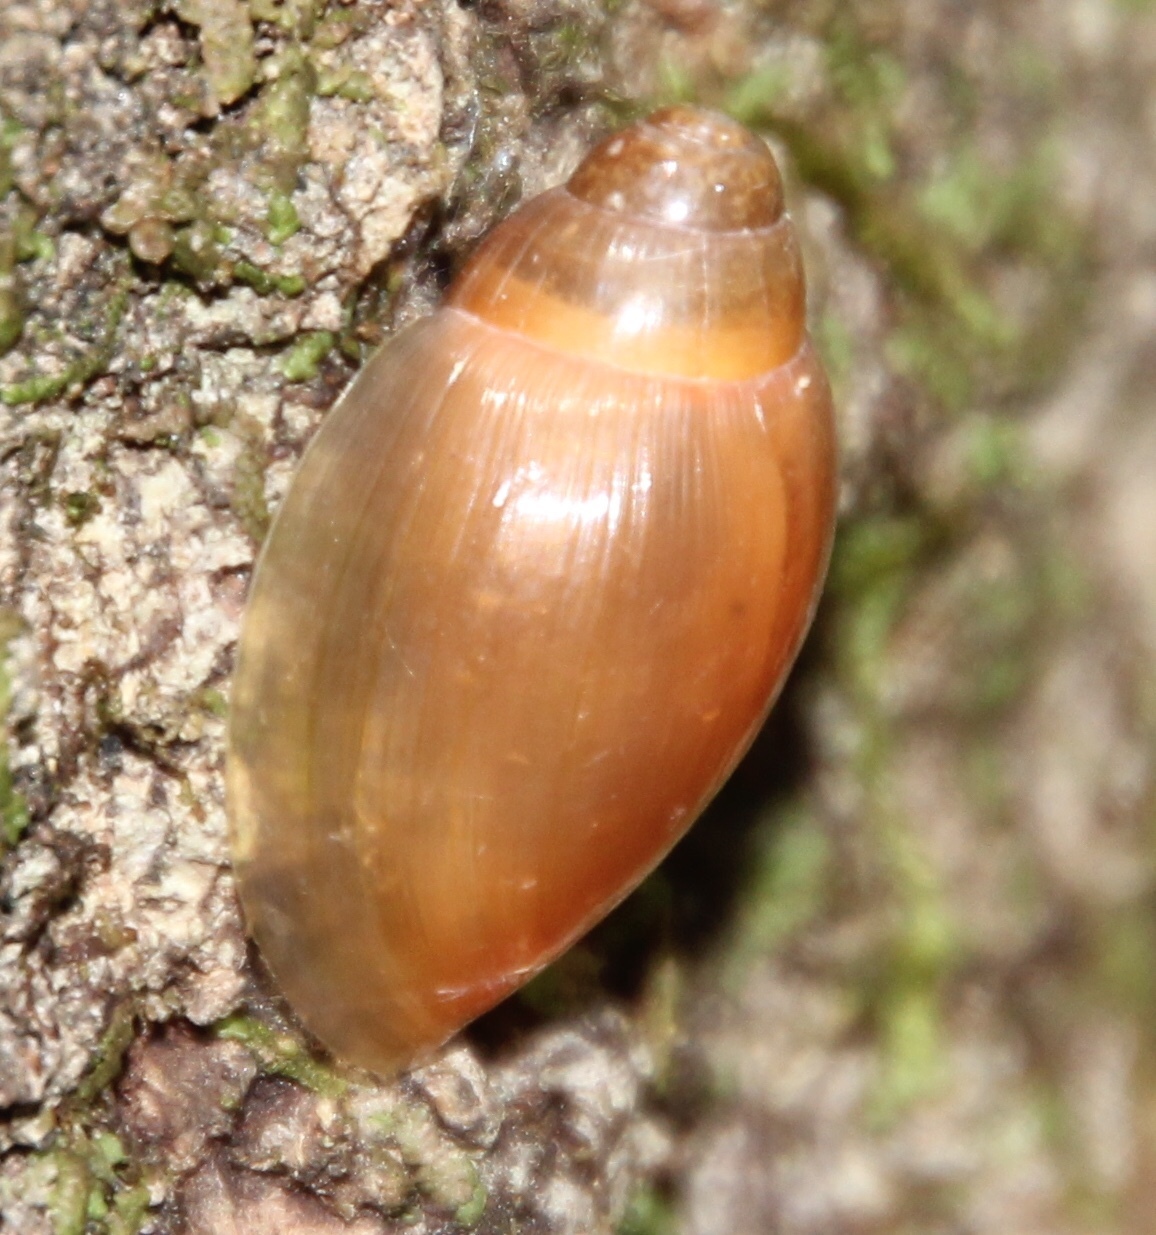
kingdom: Animalia
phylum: Mollusca
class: Gastropoda
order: Stylommatophora
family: Spiraxidae
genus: Euglandina
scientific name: Euglandina rosea
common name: Rosy wolfsnail
